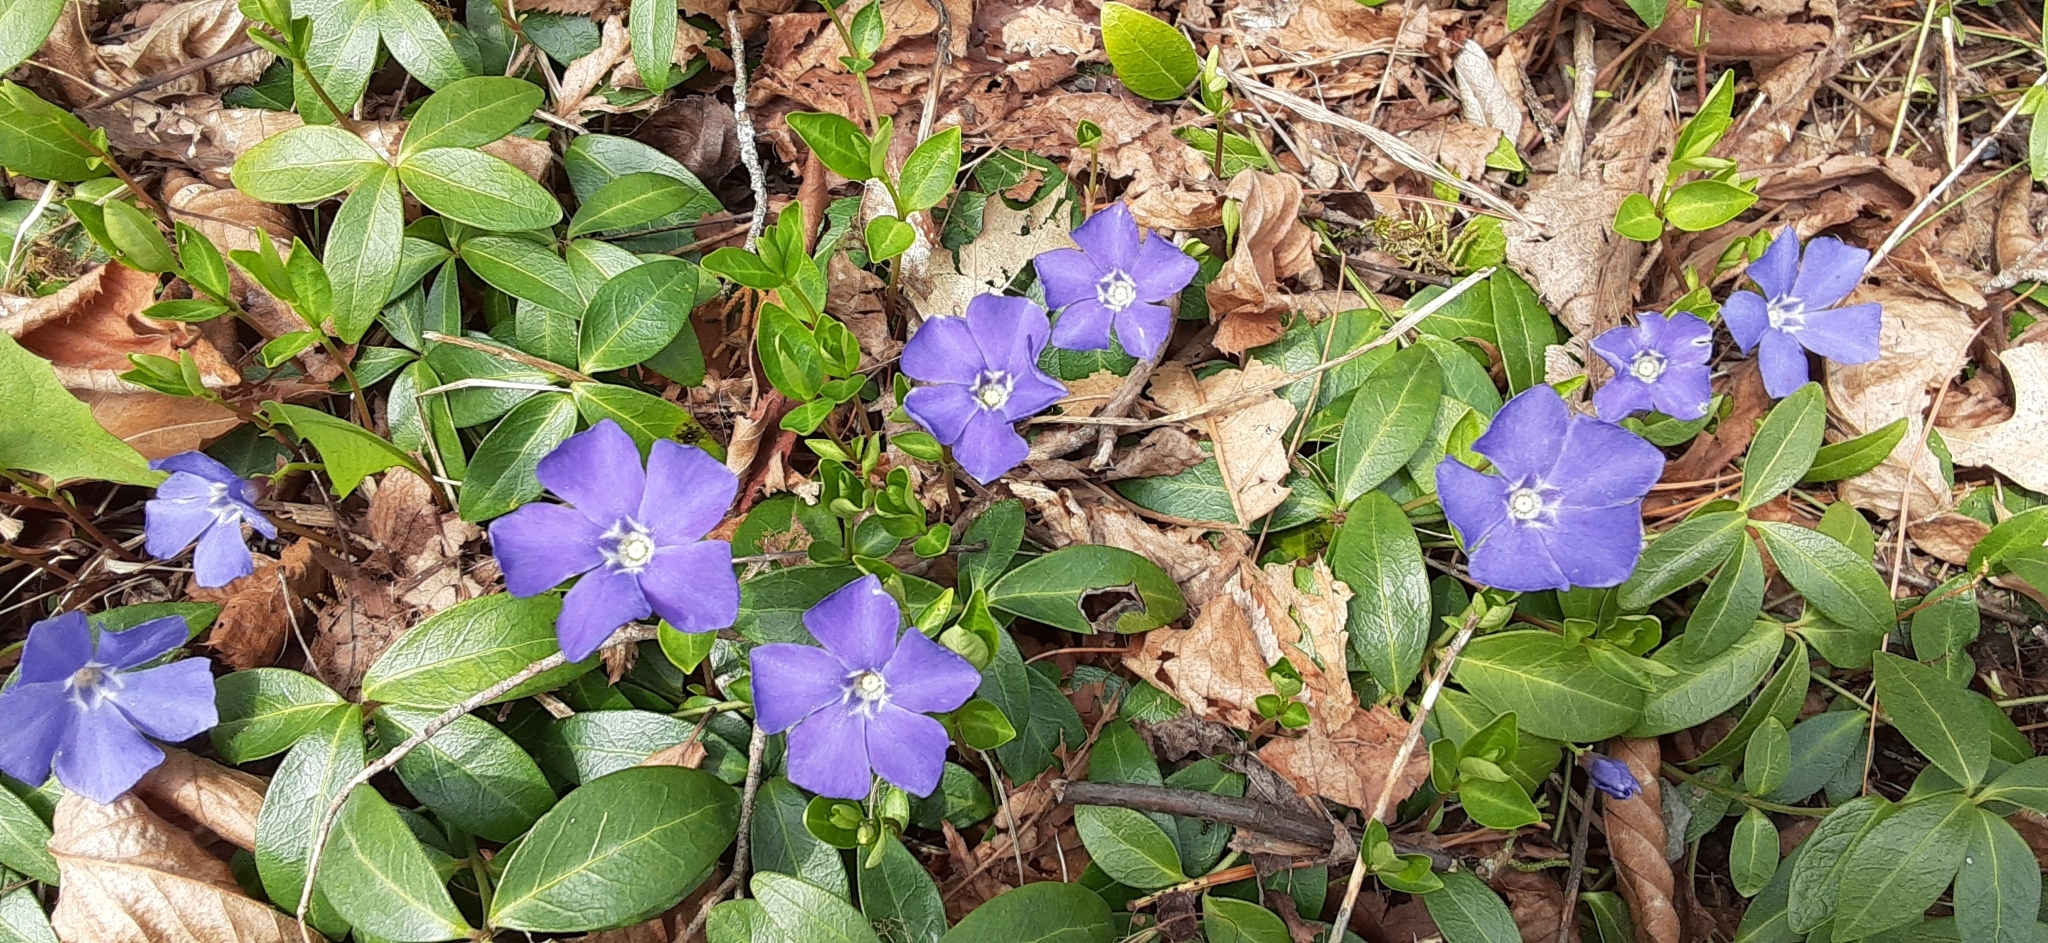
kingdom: Plantae
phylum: Tracheophyta
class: Magnoliopsida
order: Gentianales
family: Apocynaceae
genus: Vinca
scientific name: Vinca minor
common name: Lesser periwinkle
